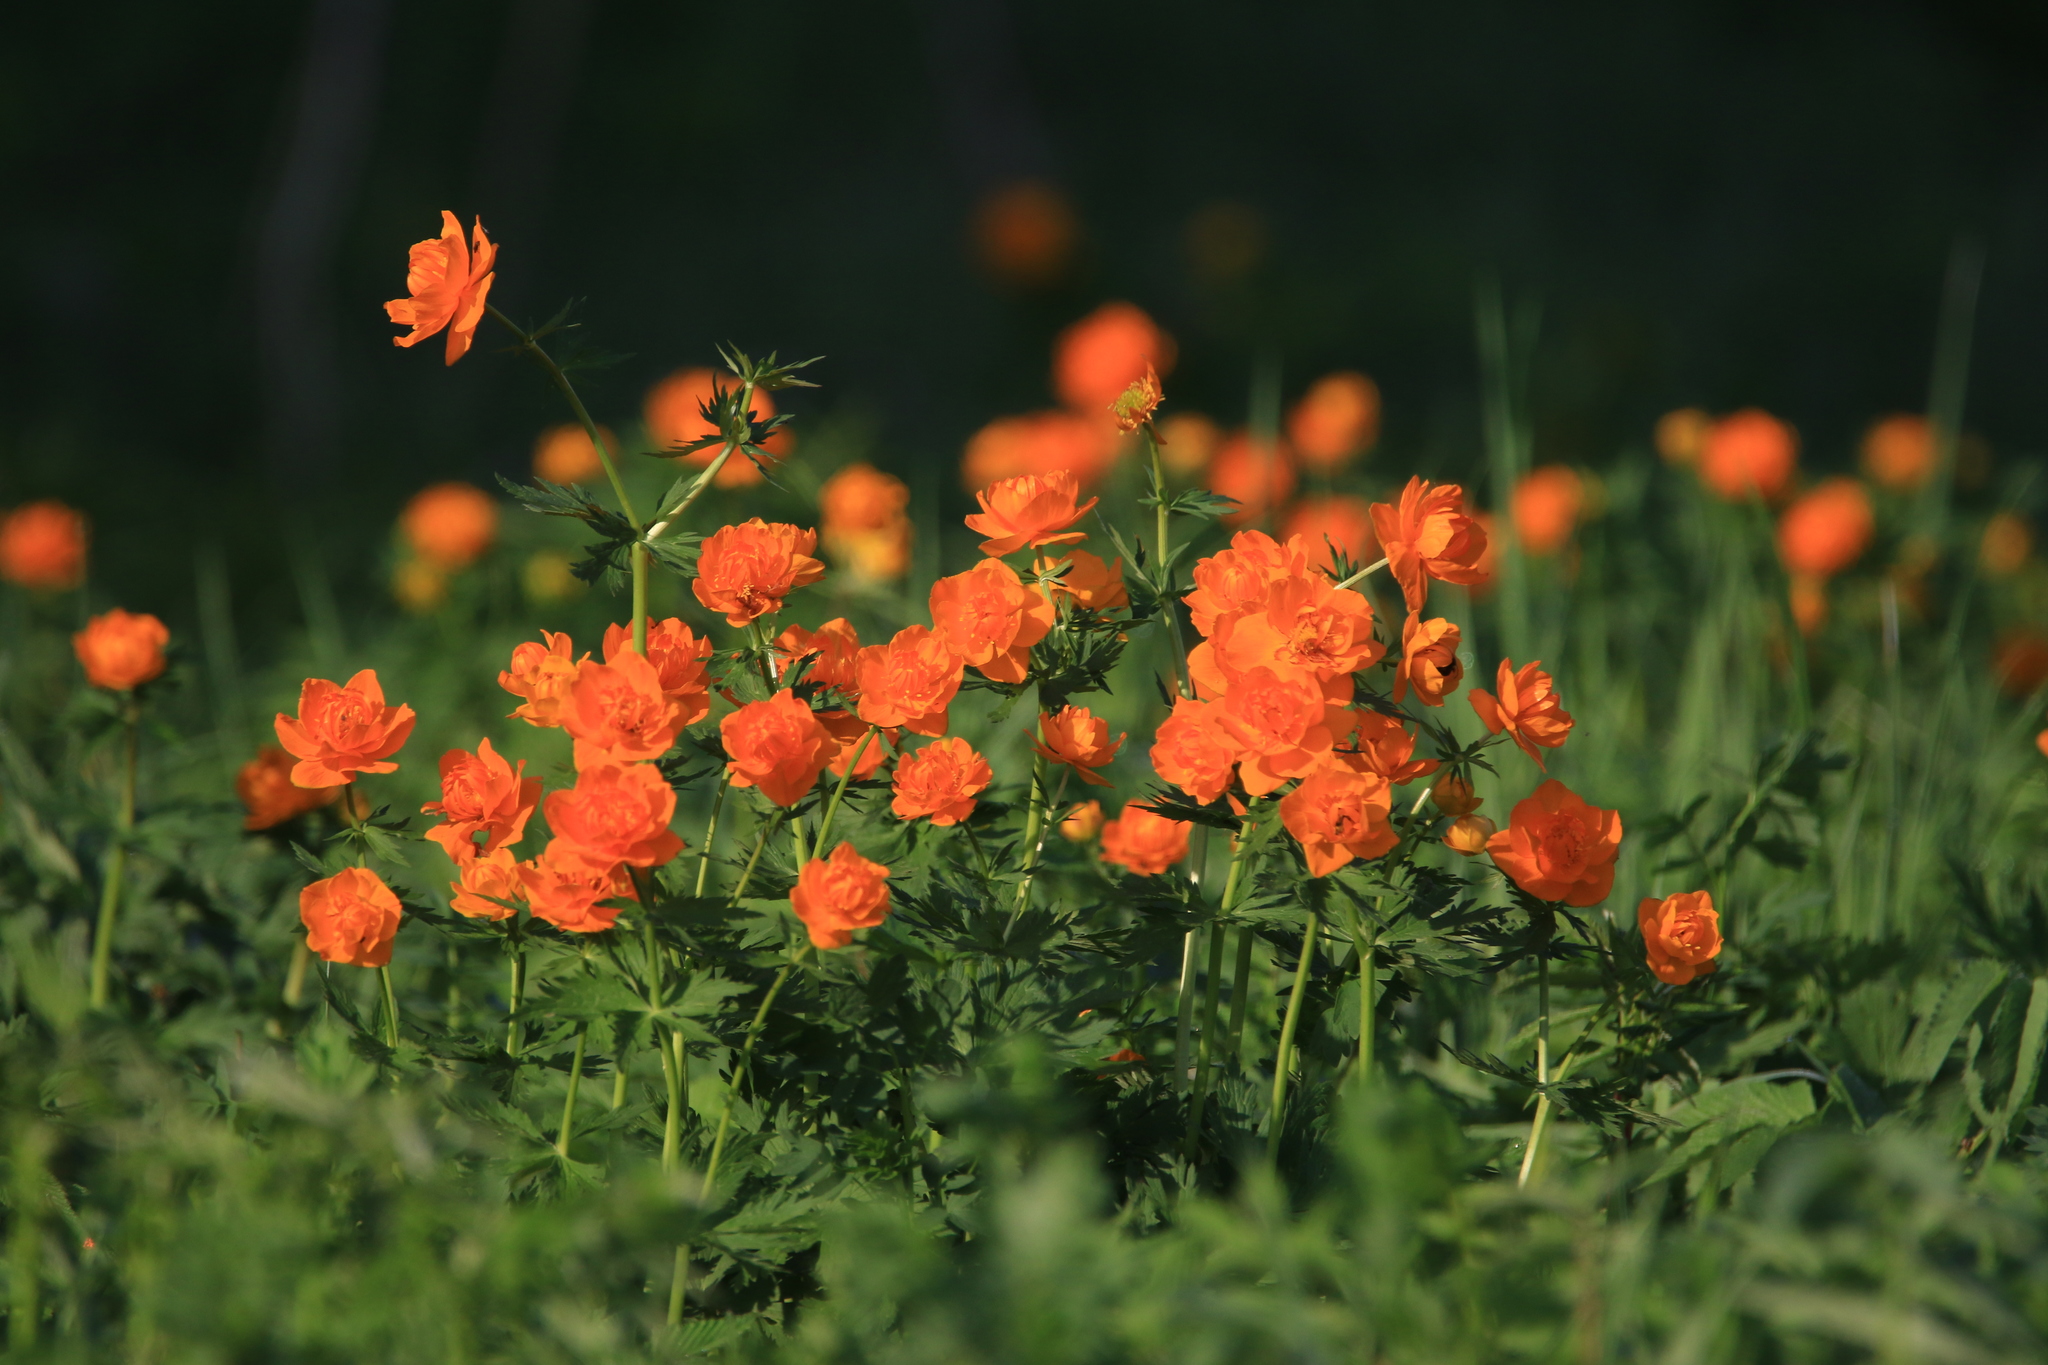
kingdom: Plantae
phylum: Tracheophyta
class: Magnoliopsida
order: Ranunculales
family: Ranunculaceae
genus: Trollius
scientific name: Trollius asiaticus
